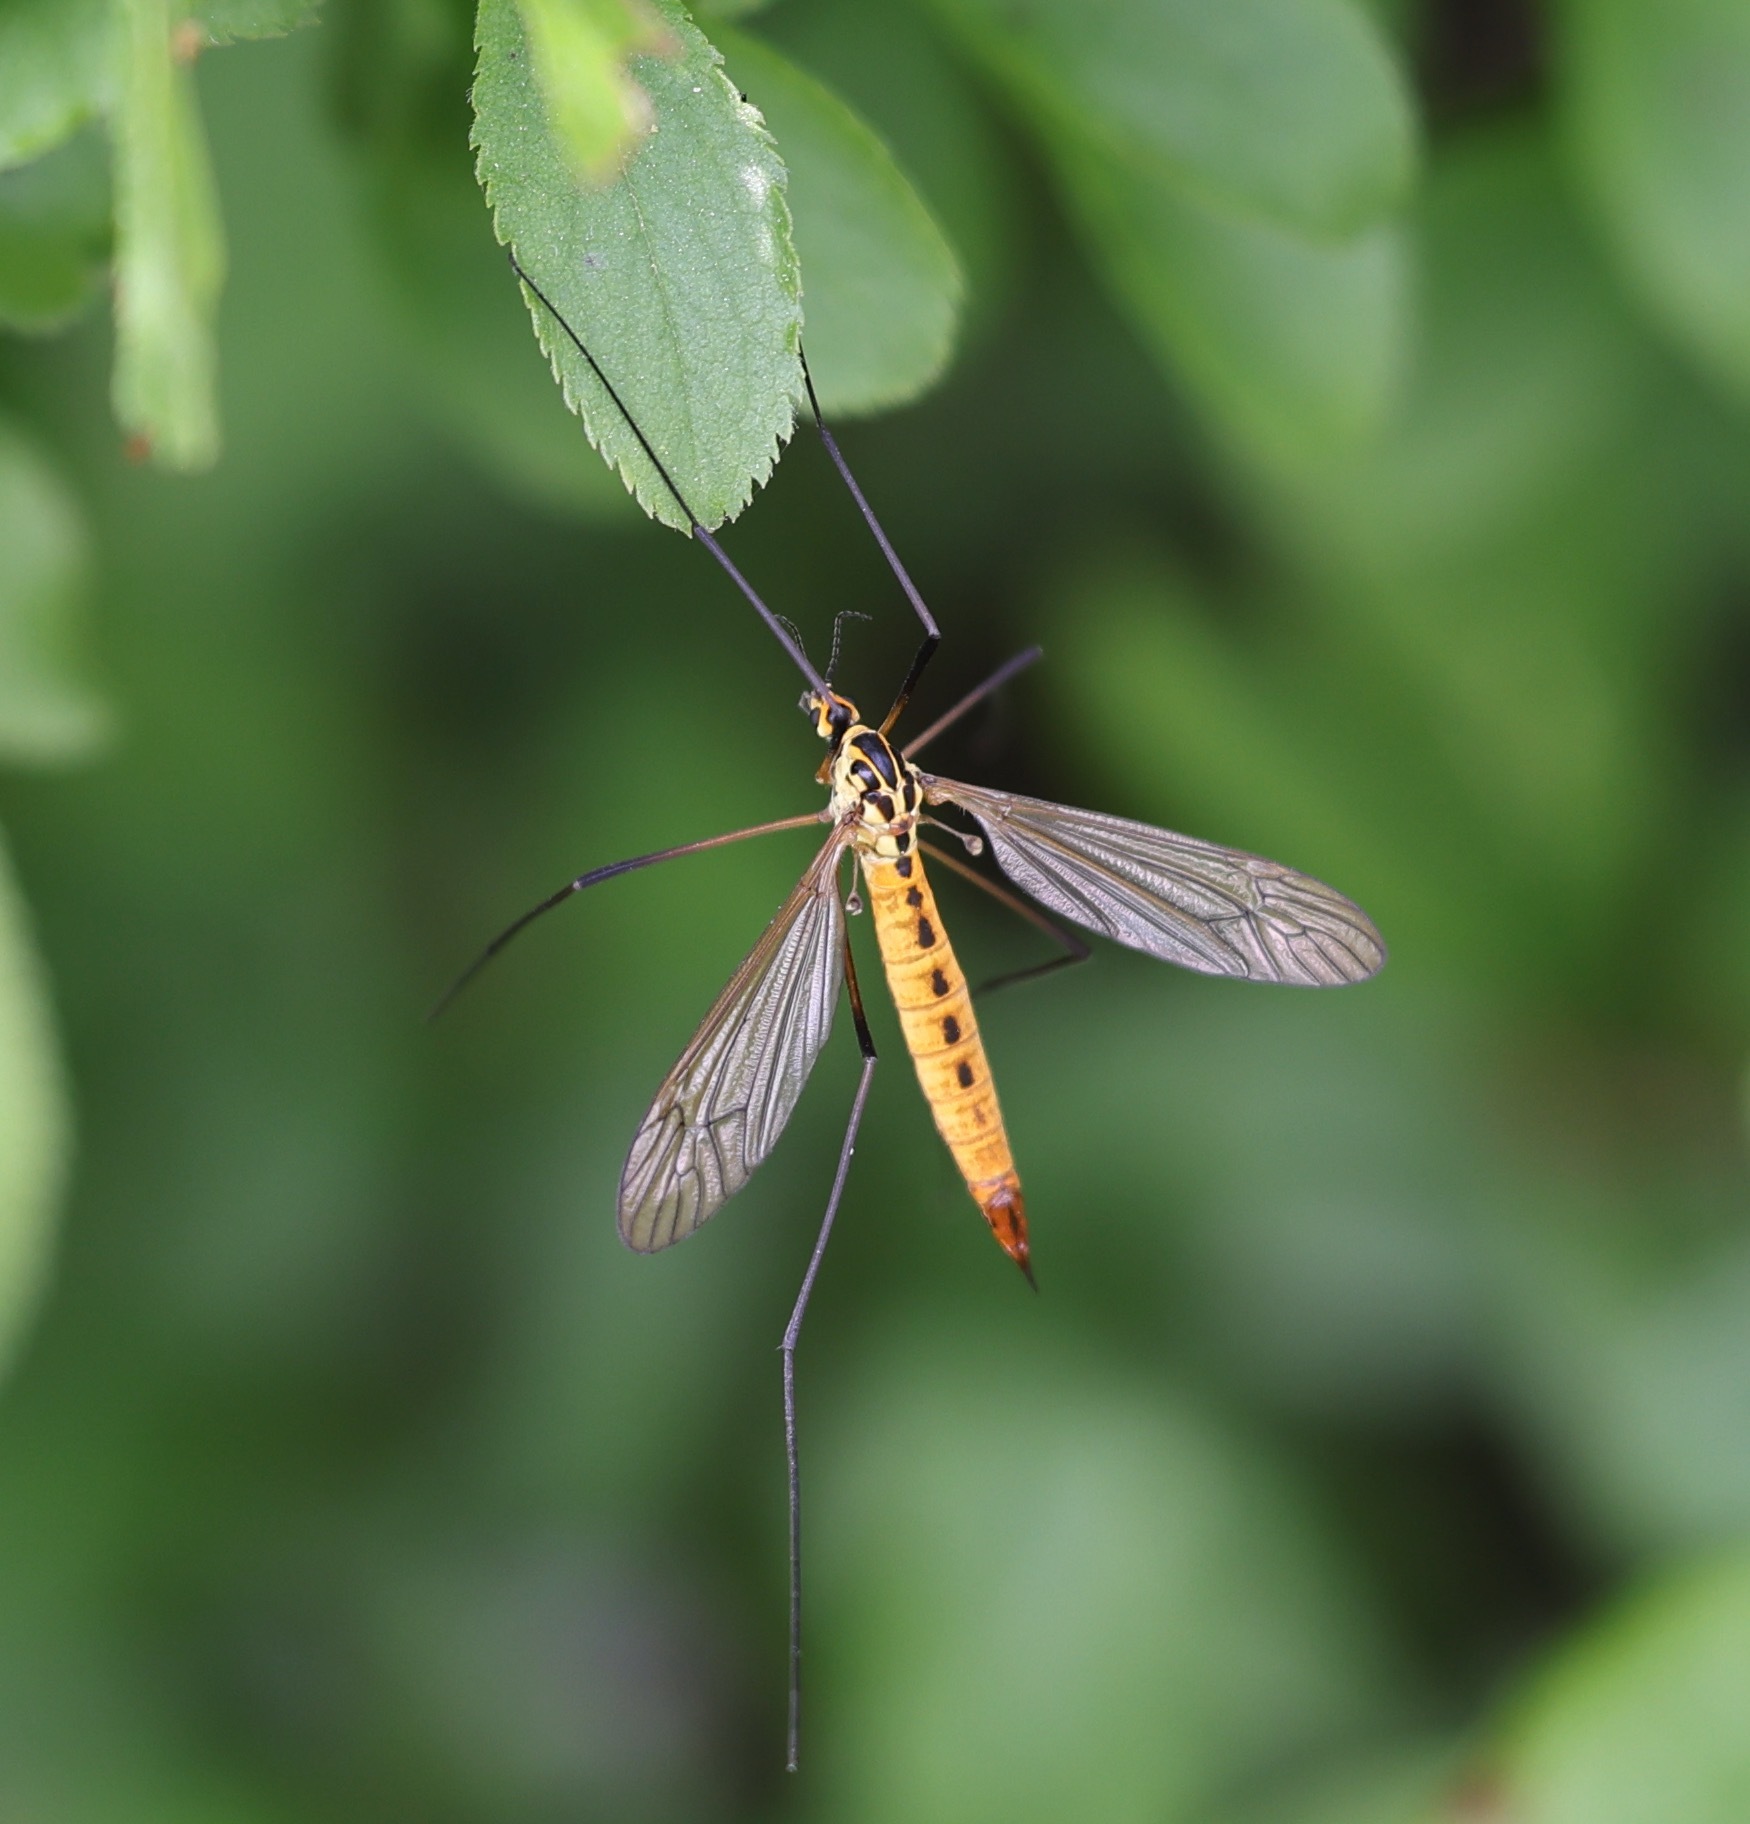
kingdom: Animalia
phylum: Arthropoda
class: Insecta
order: Diptera
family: Tipulidae
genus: Nephrotoma
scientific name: Nephrotoma flavescens
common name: Tiger cranefly
